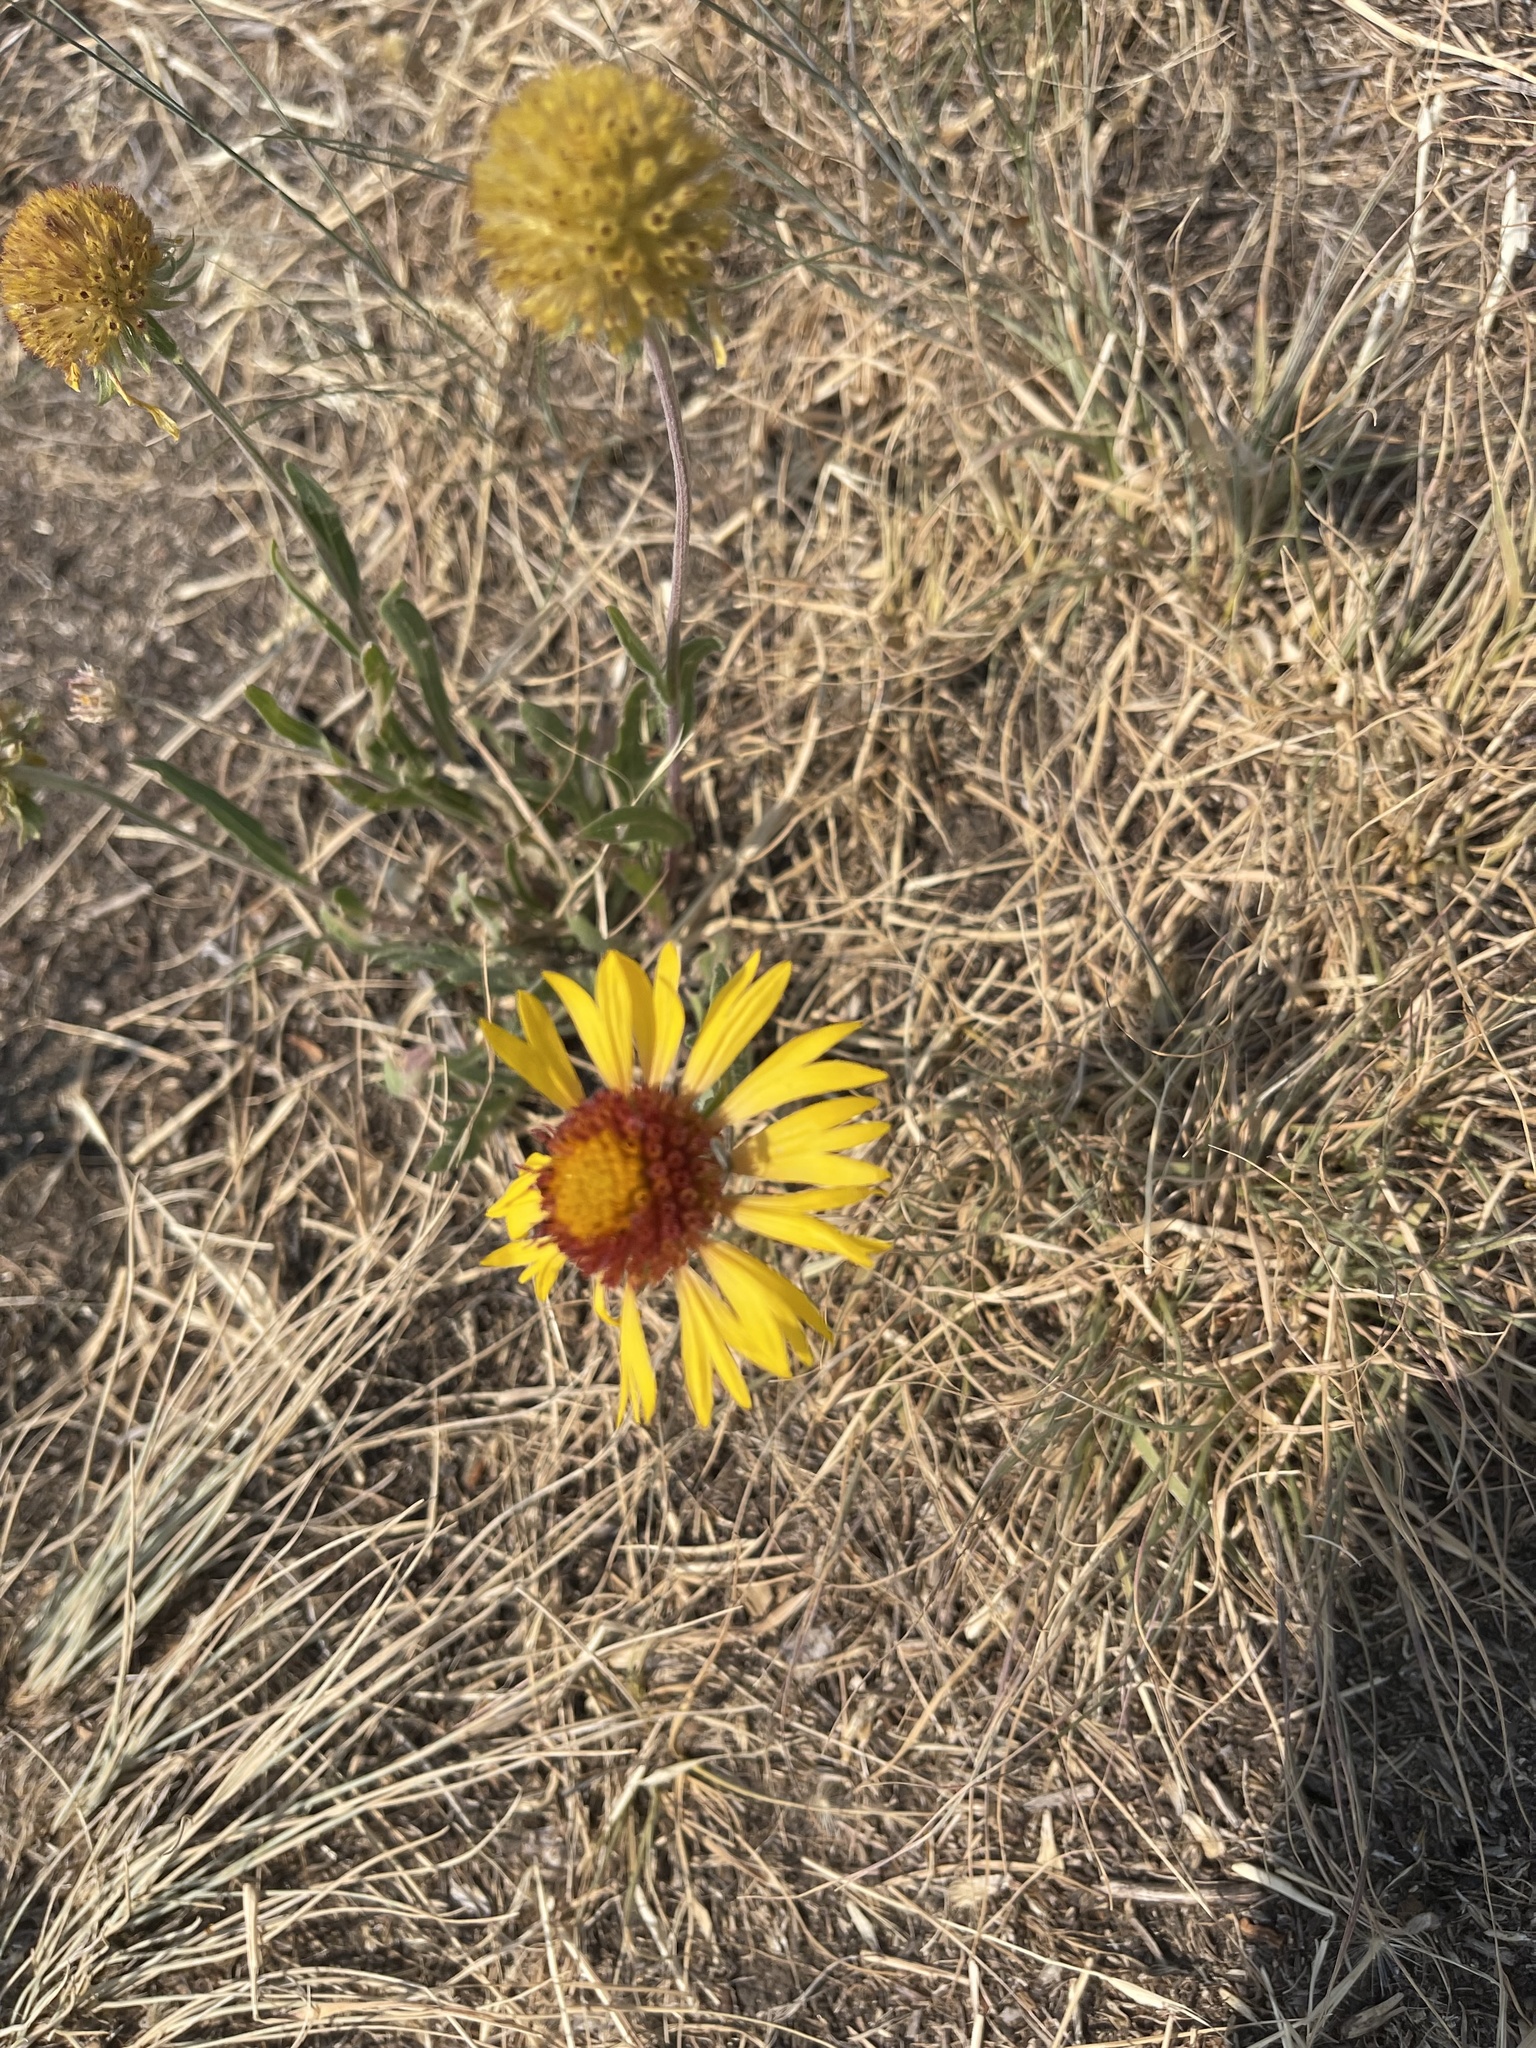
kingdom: Plantae
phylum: Tracheophyta
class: Magnoliopsida
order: Asterales
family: Asteraceae
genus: Gaillardia
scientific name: Gaillardia aristata
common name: Blanket-flower
